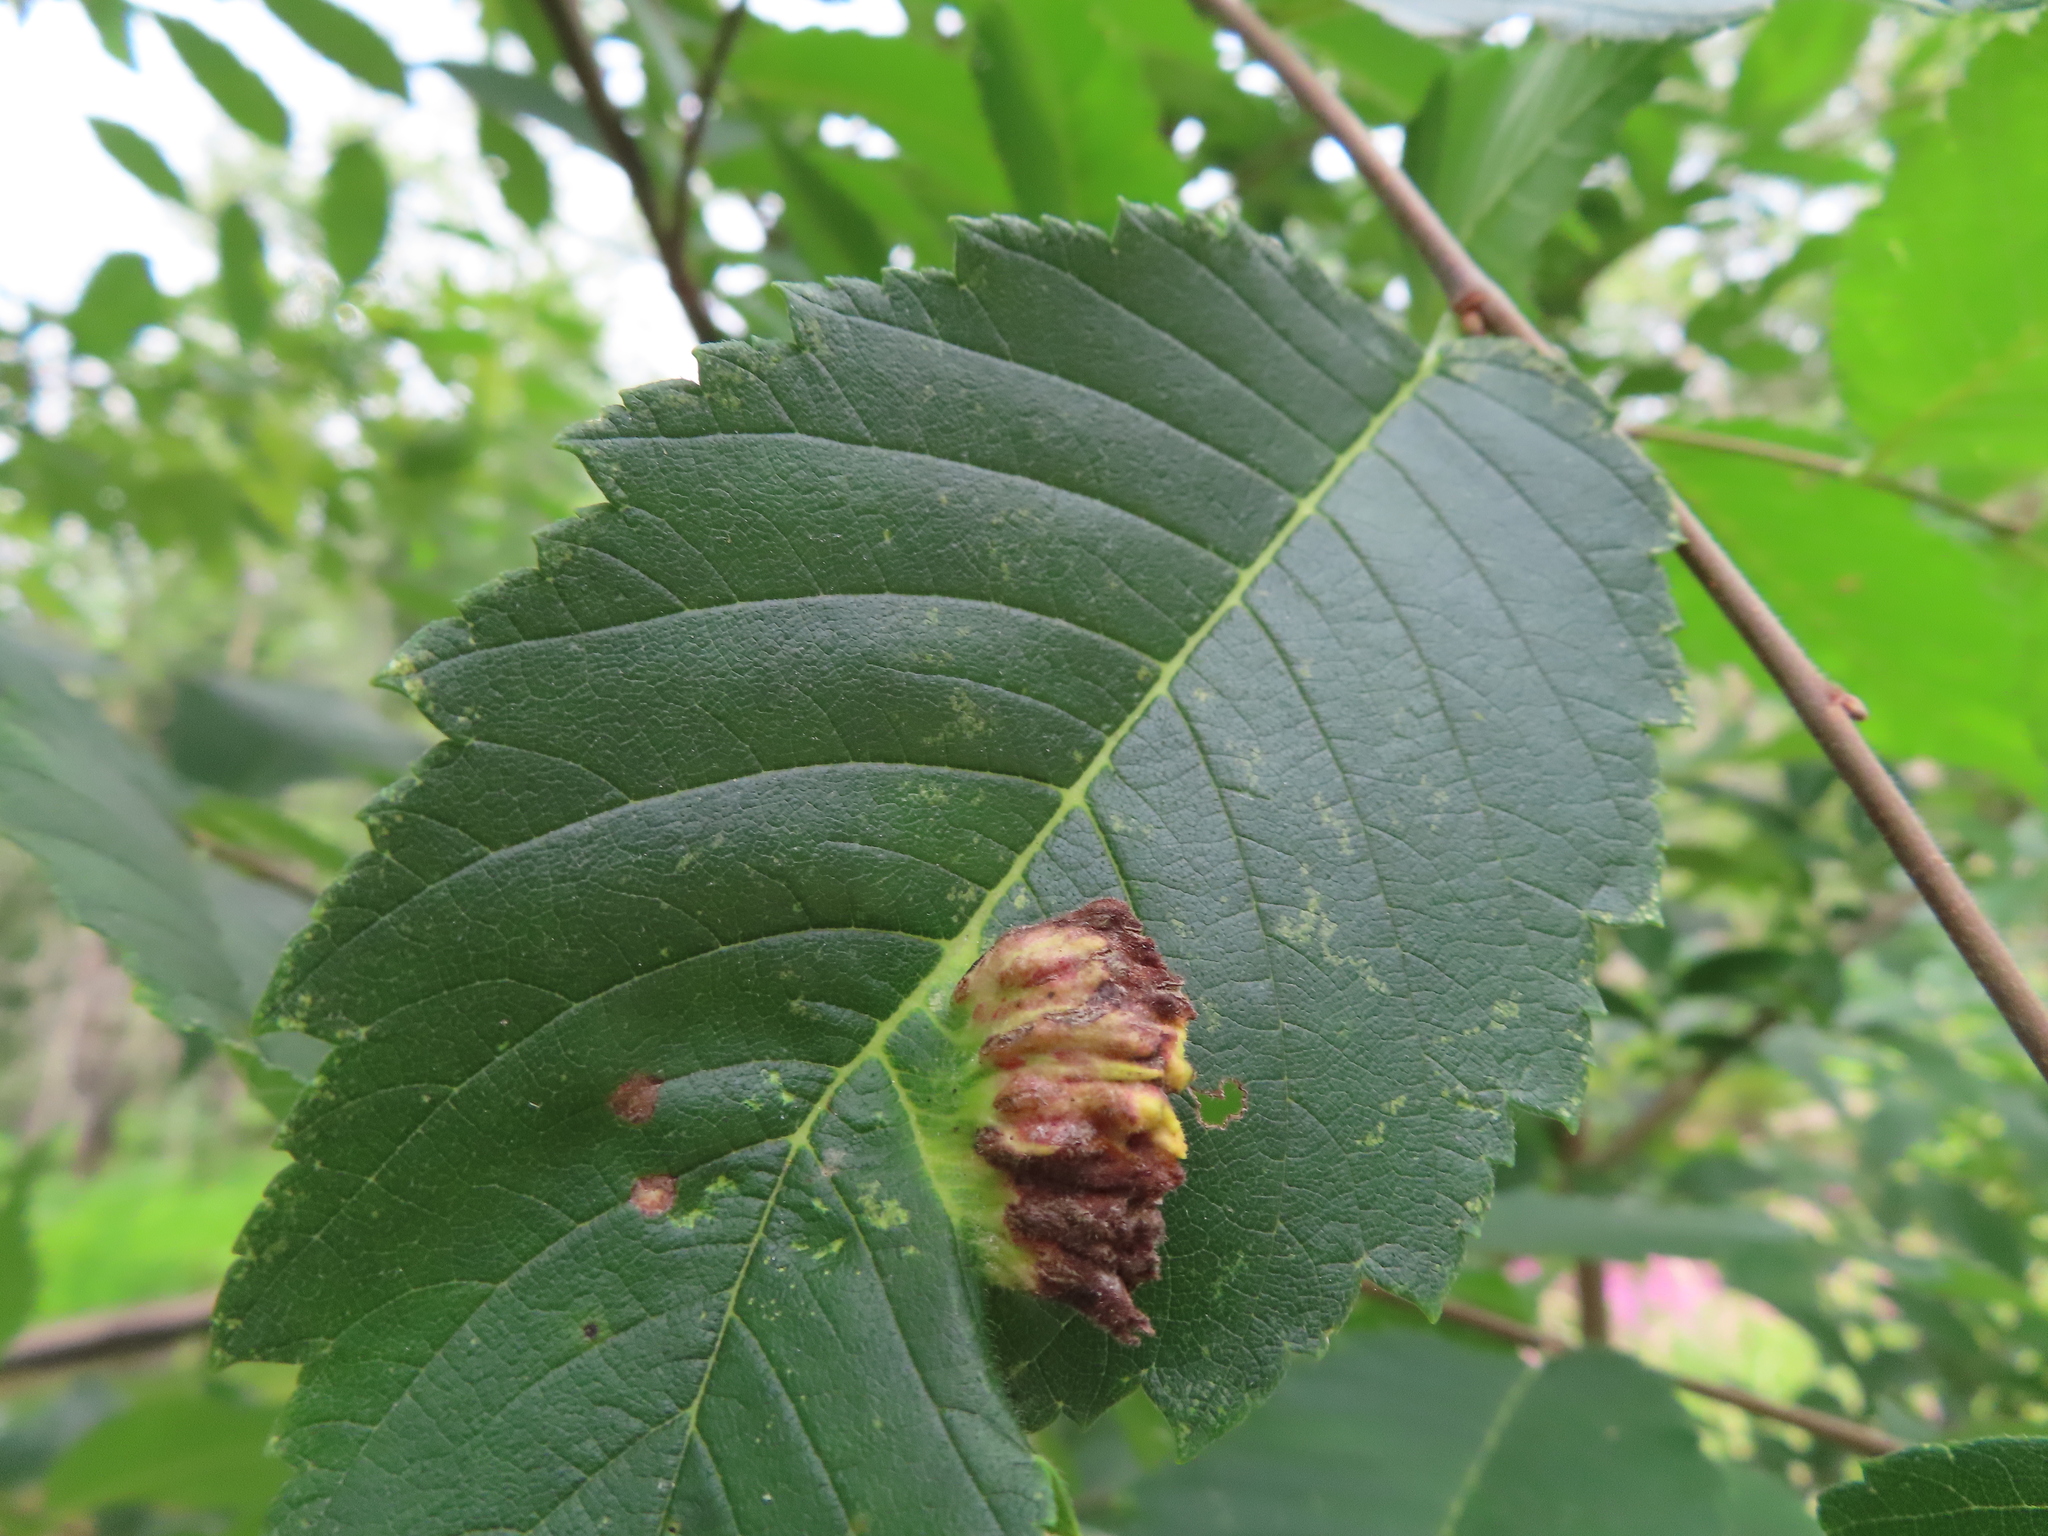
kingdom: Animalia
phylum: Arthropoda
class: Insecta
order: Hemiptera
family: Aphididae
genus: Colopha
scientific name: Colopha ulmicola
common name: Elm cockscombgall aphid
